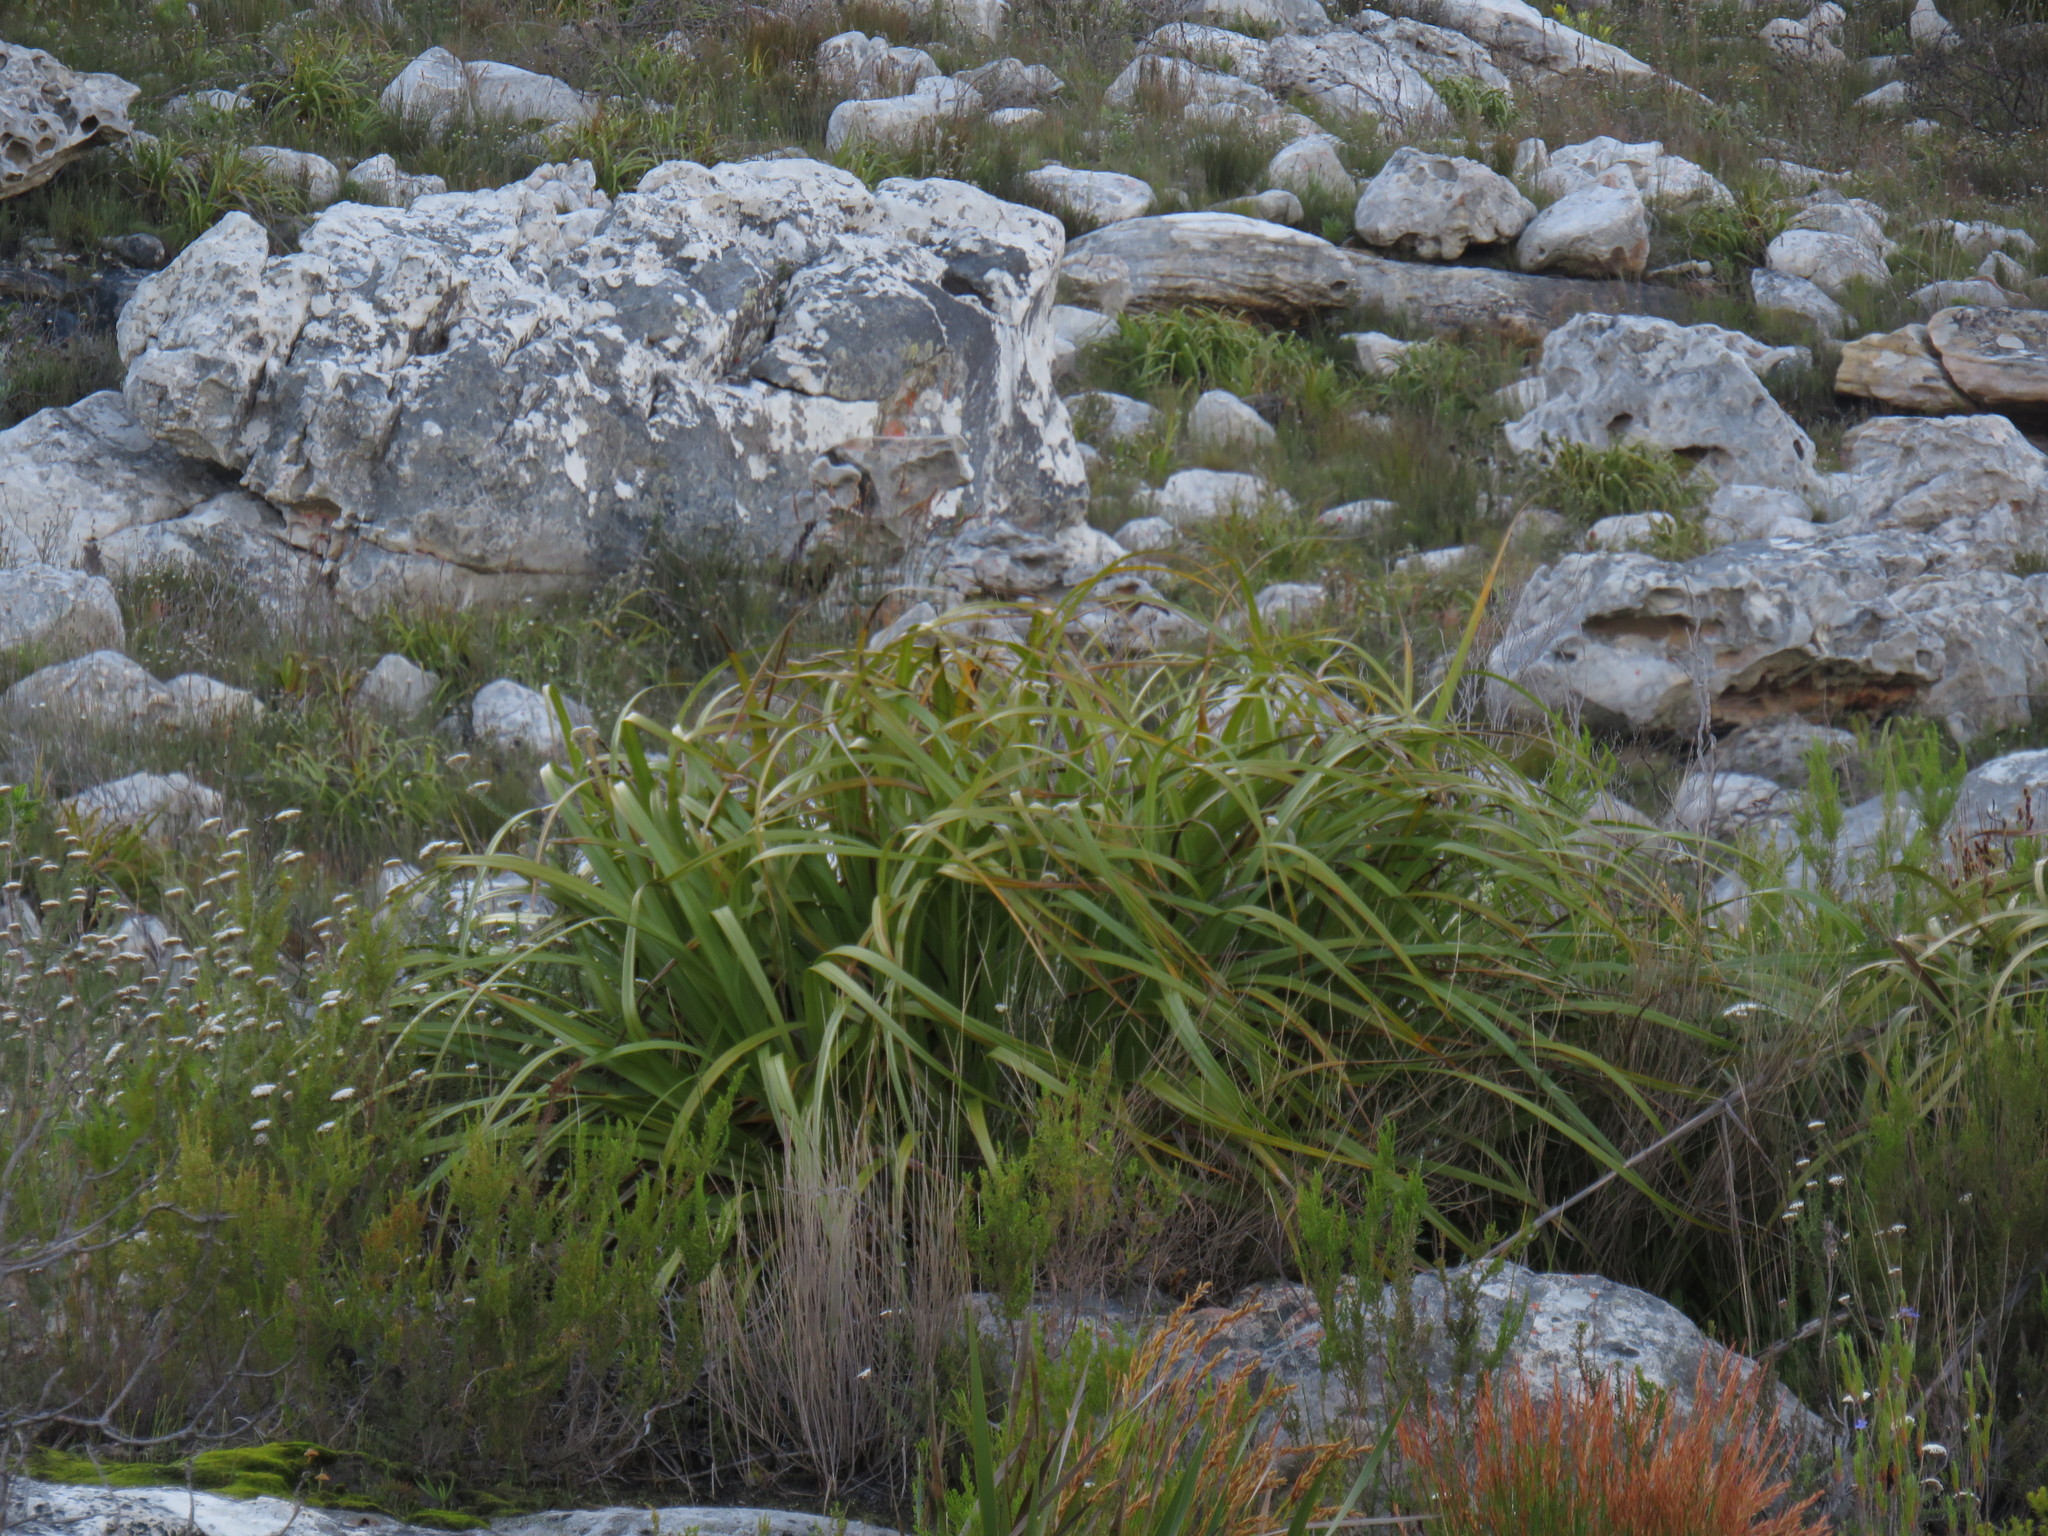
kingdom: Plantae
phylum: Tracheophyta
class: Liliopsida
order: Poales
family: Cyperaceae
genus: Tetraria
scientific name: Tetraria thermalis
